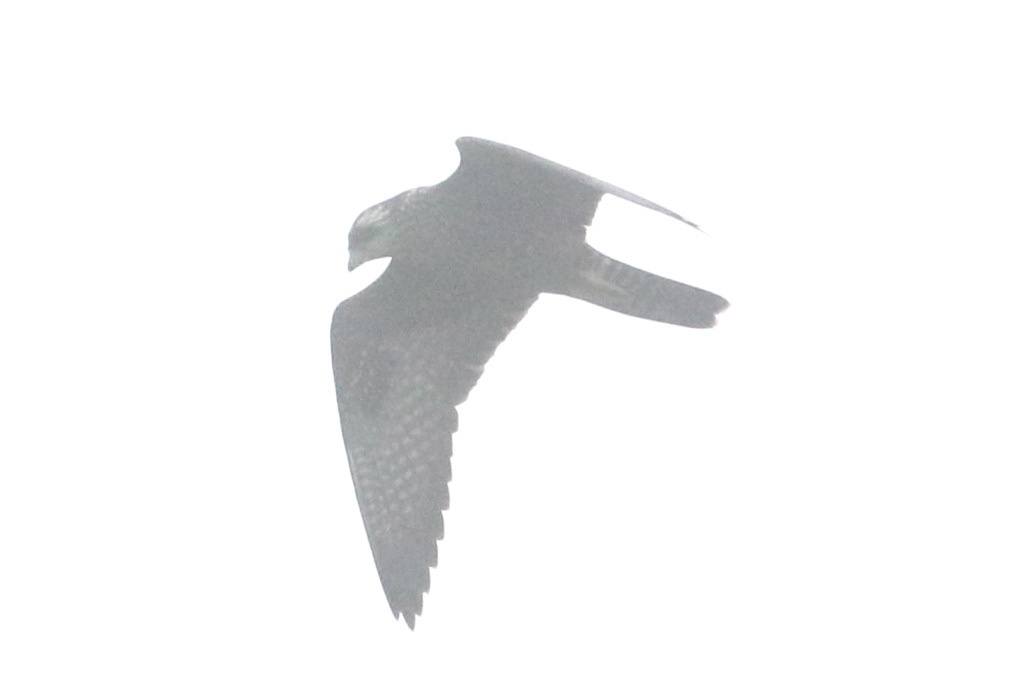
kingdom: Animalia
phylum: Chordata
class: Aves
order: Falconiformes
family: Falconidae
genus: Falco
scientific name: Falco peregrinus
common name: Peregrine falcon
